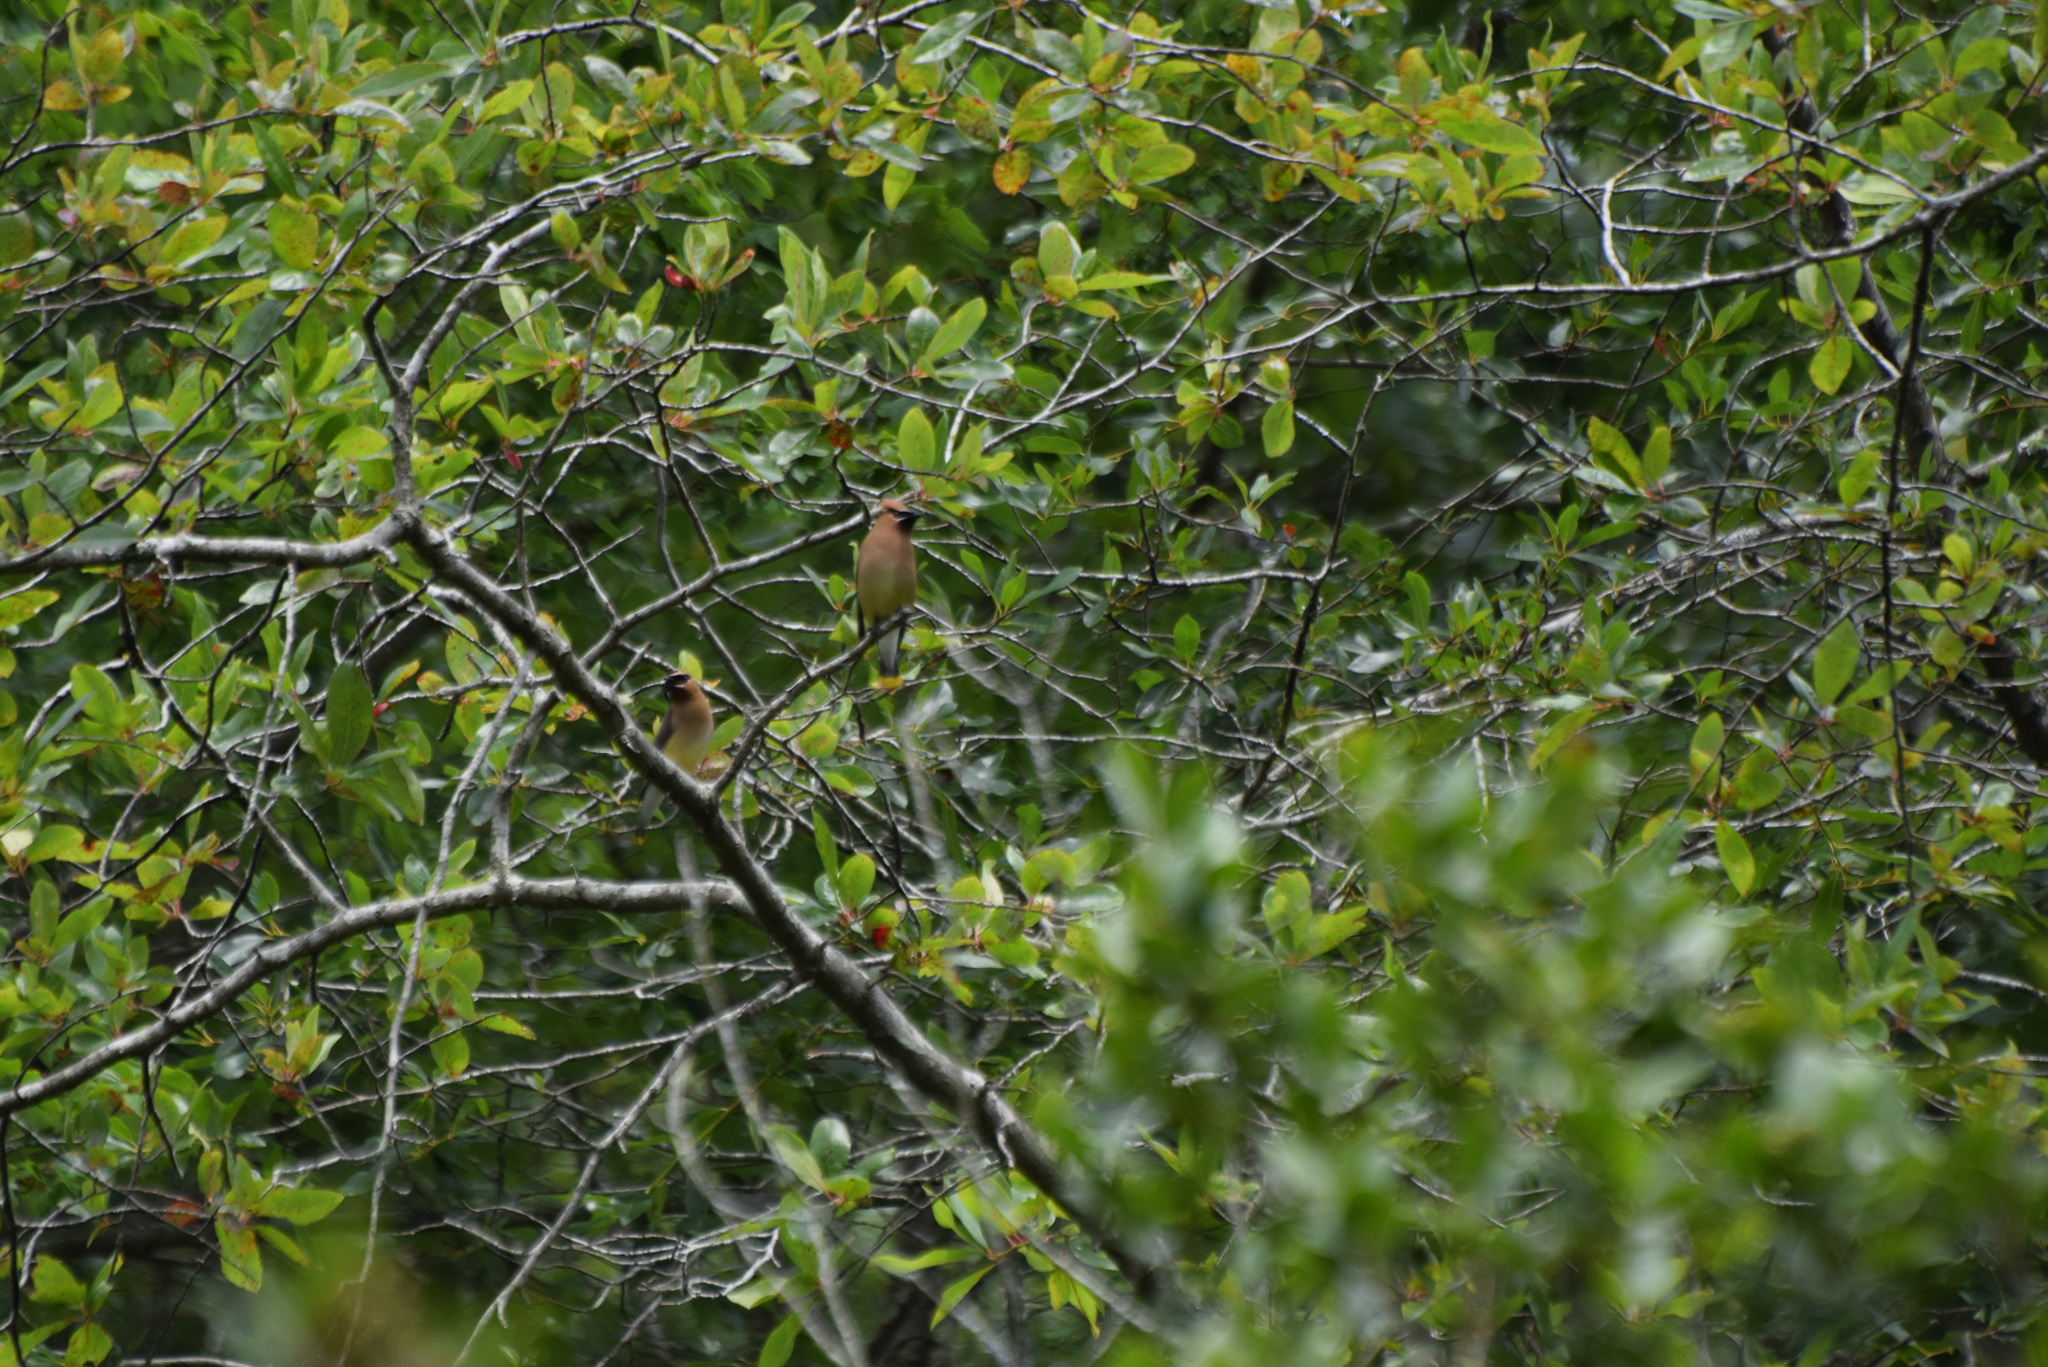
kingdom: Animalia
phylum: Chordata
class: Aves
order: Passeriformes
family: Bombycillidae
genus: Bombycilla
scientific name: Bombycilla cedrorum
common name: Cedar waxwing
